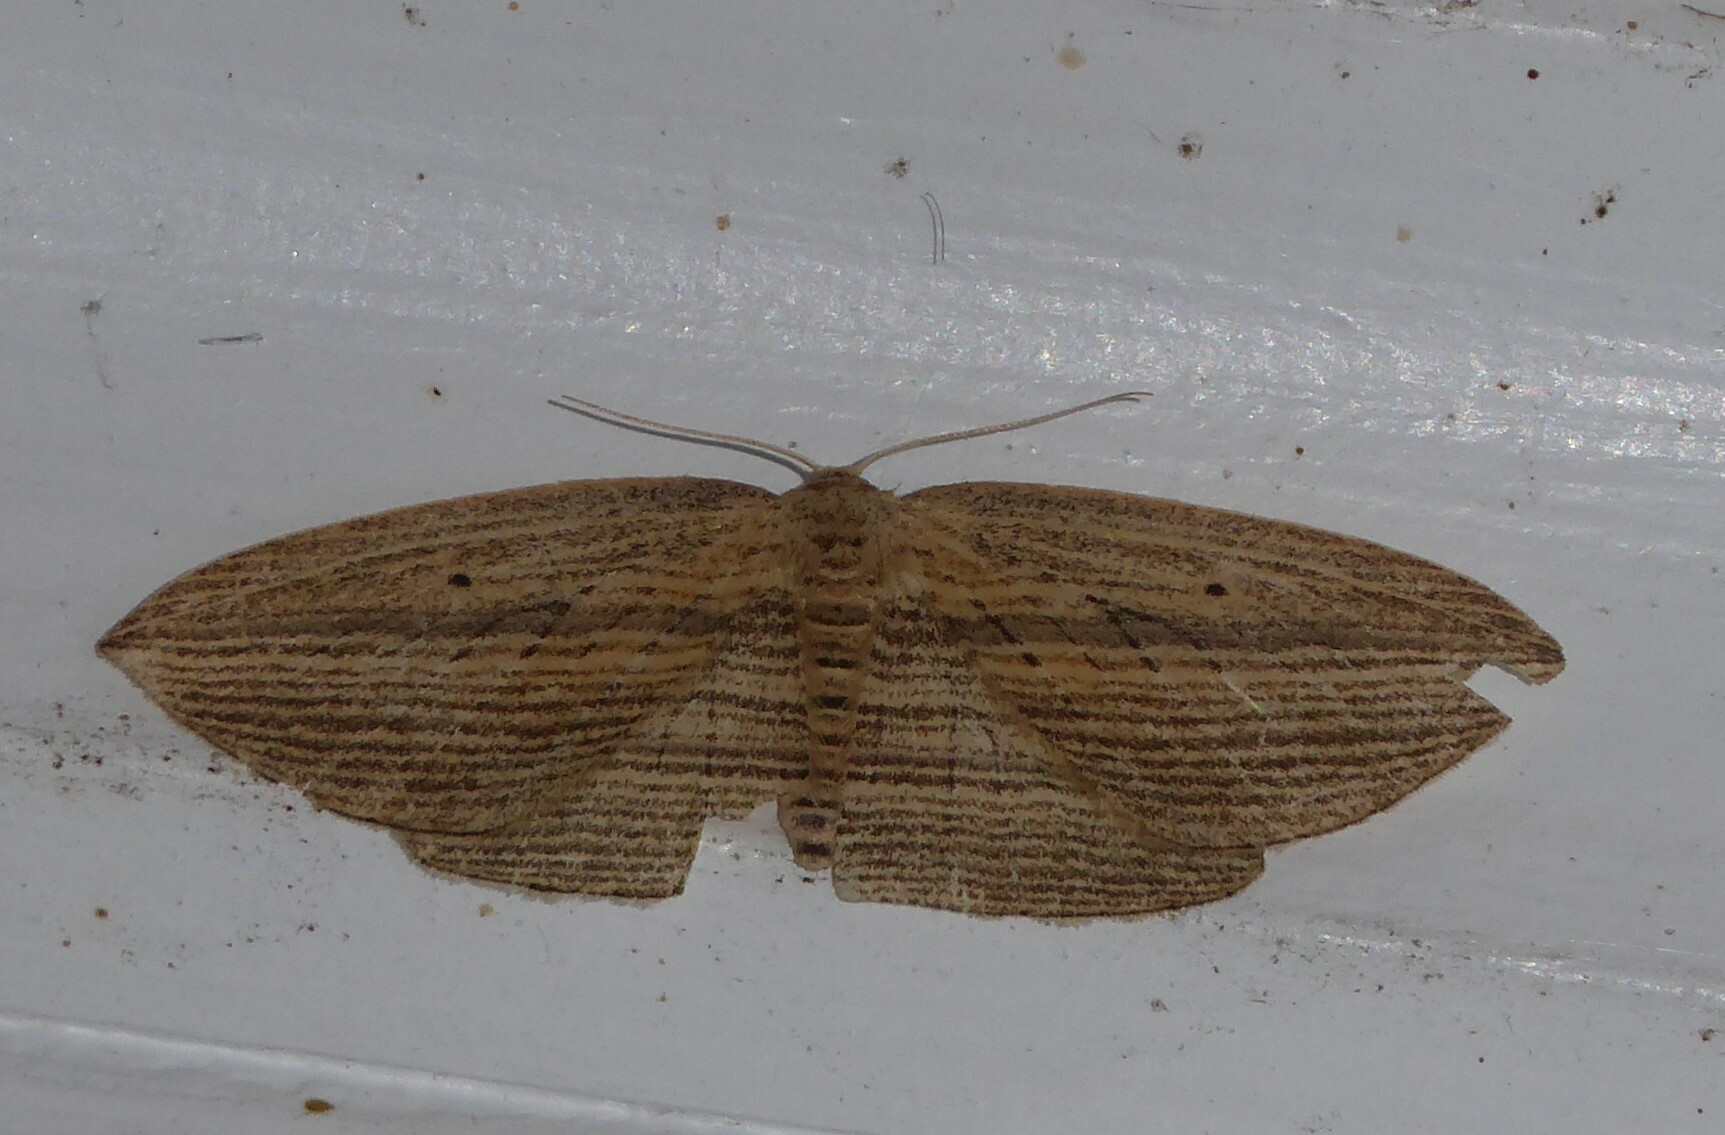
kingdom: Animalia
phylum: Arthropoda
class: Insecta
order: Lepidoptera
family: Geometridae
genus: Epiphryne
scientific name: Epiphryne verriculata
